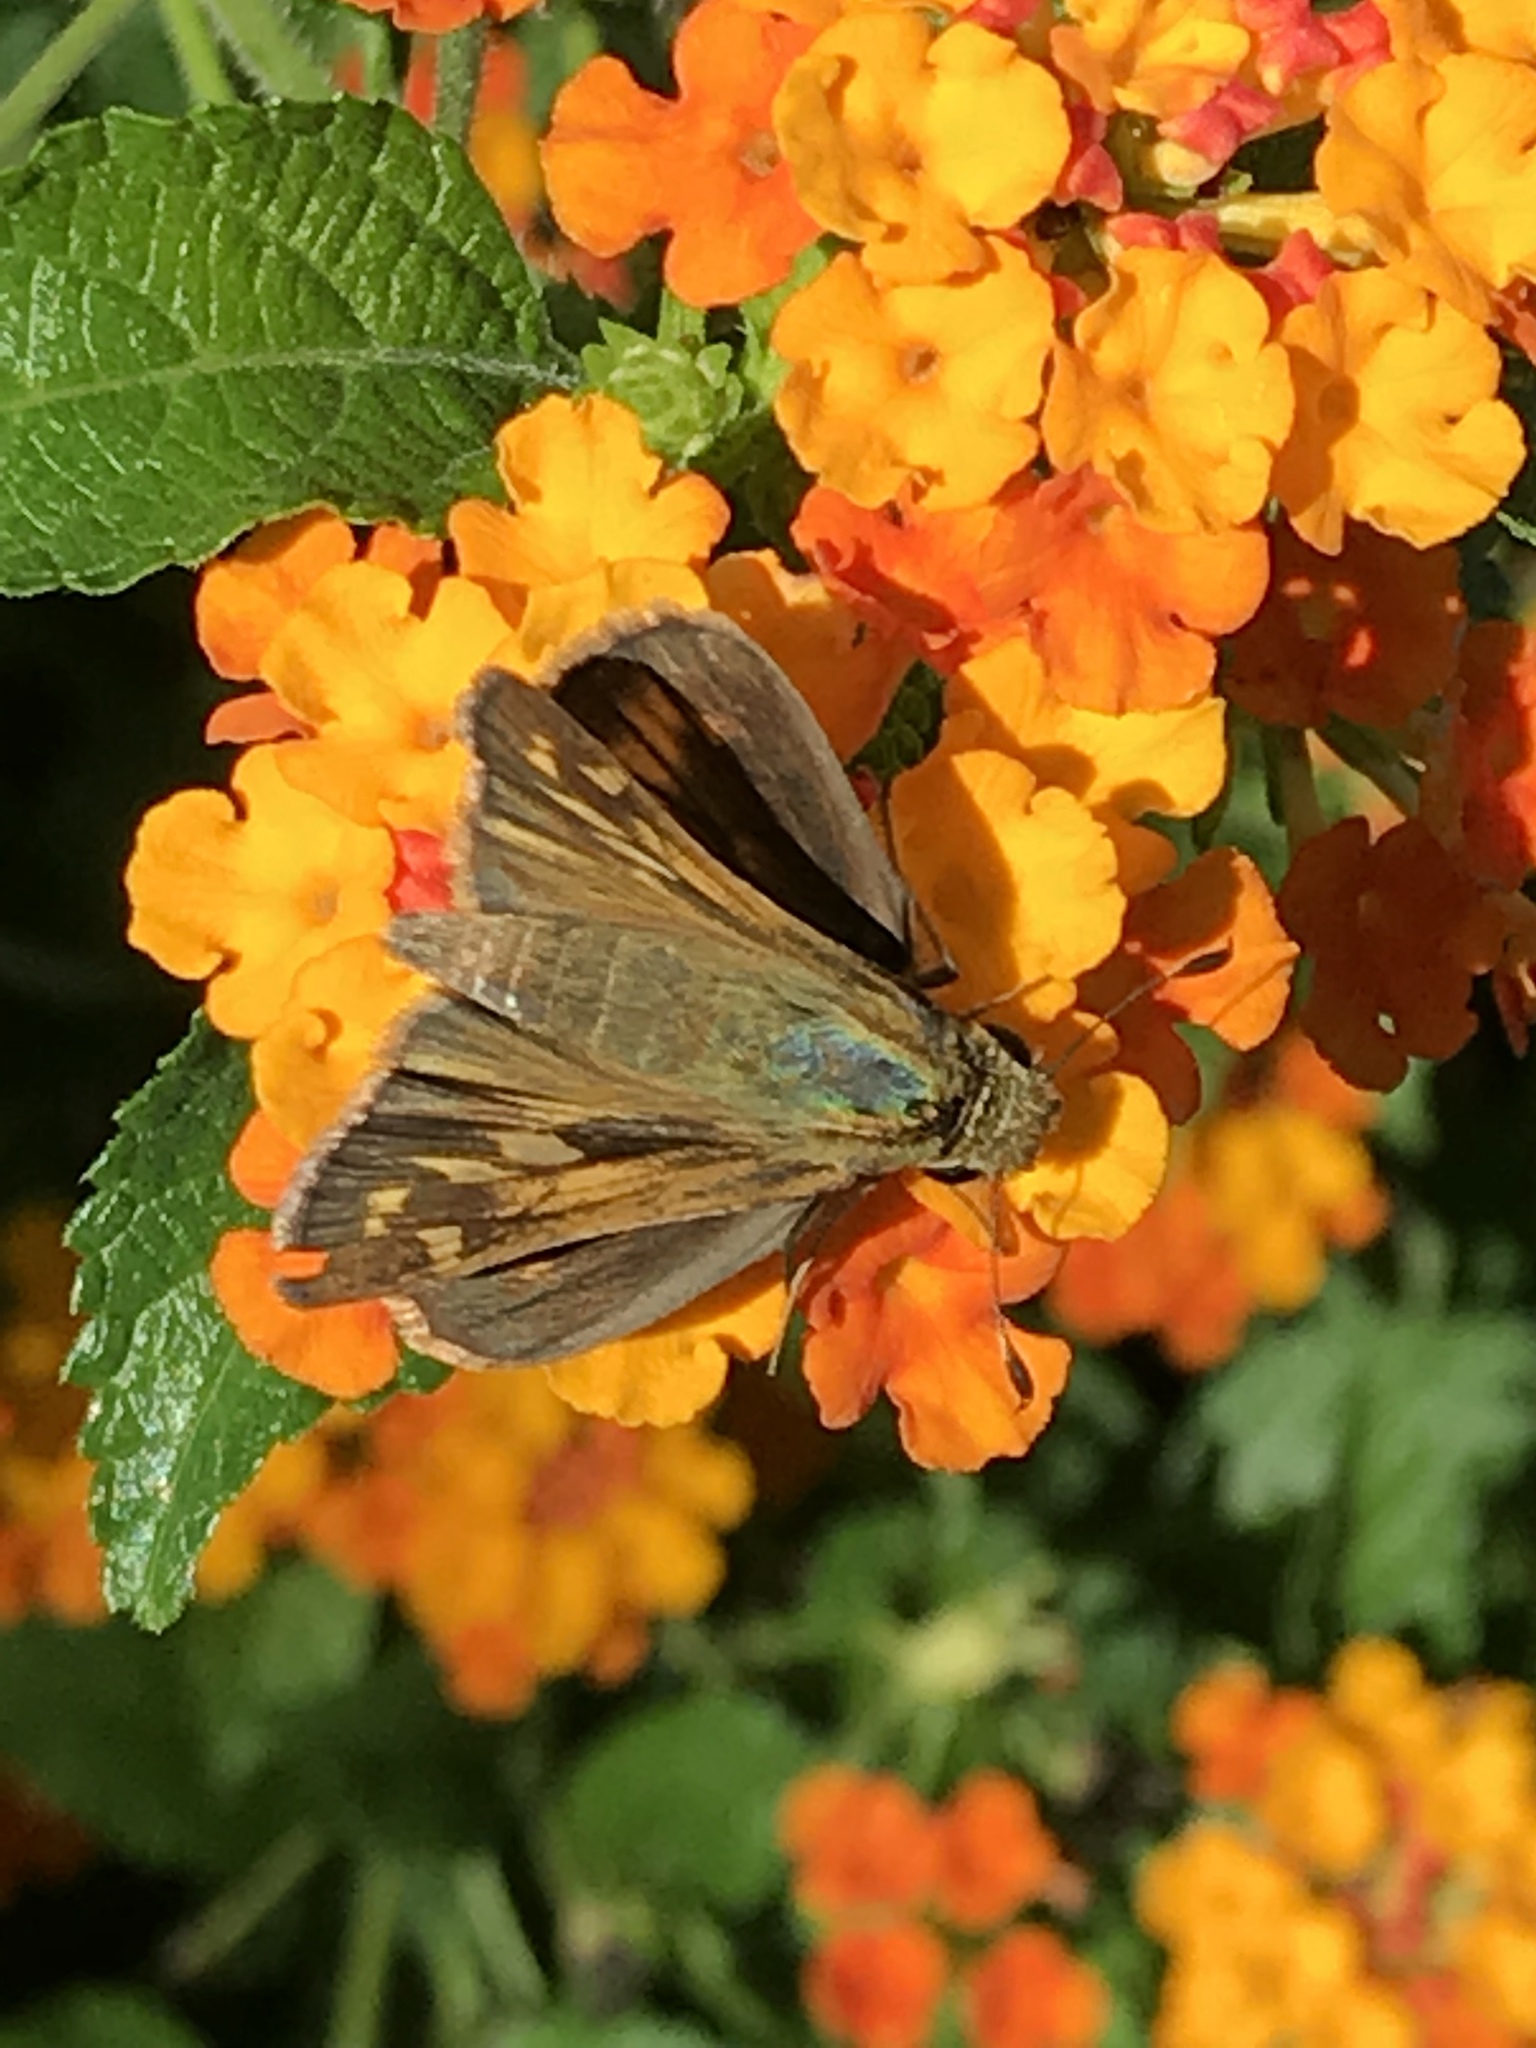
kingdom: Animalia
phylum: Arthropoda
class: Insecta
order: Lepidoptera
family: Hesperiidae
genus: Atalopedes
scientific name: Atalopedes
